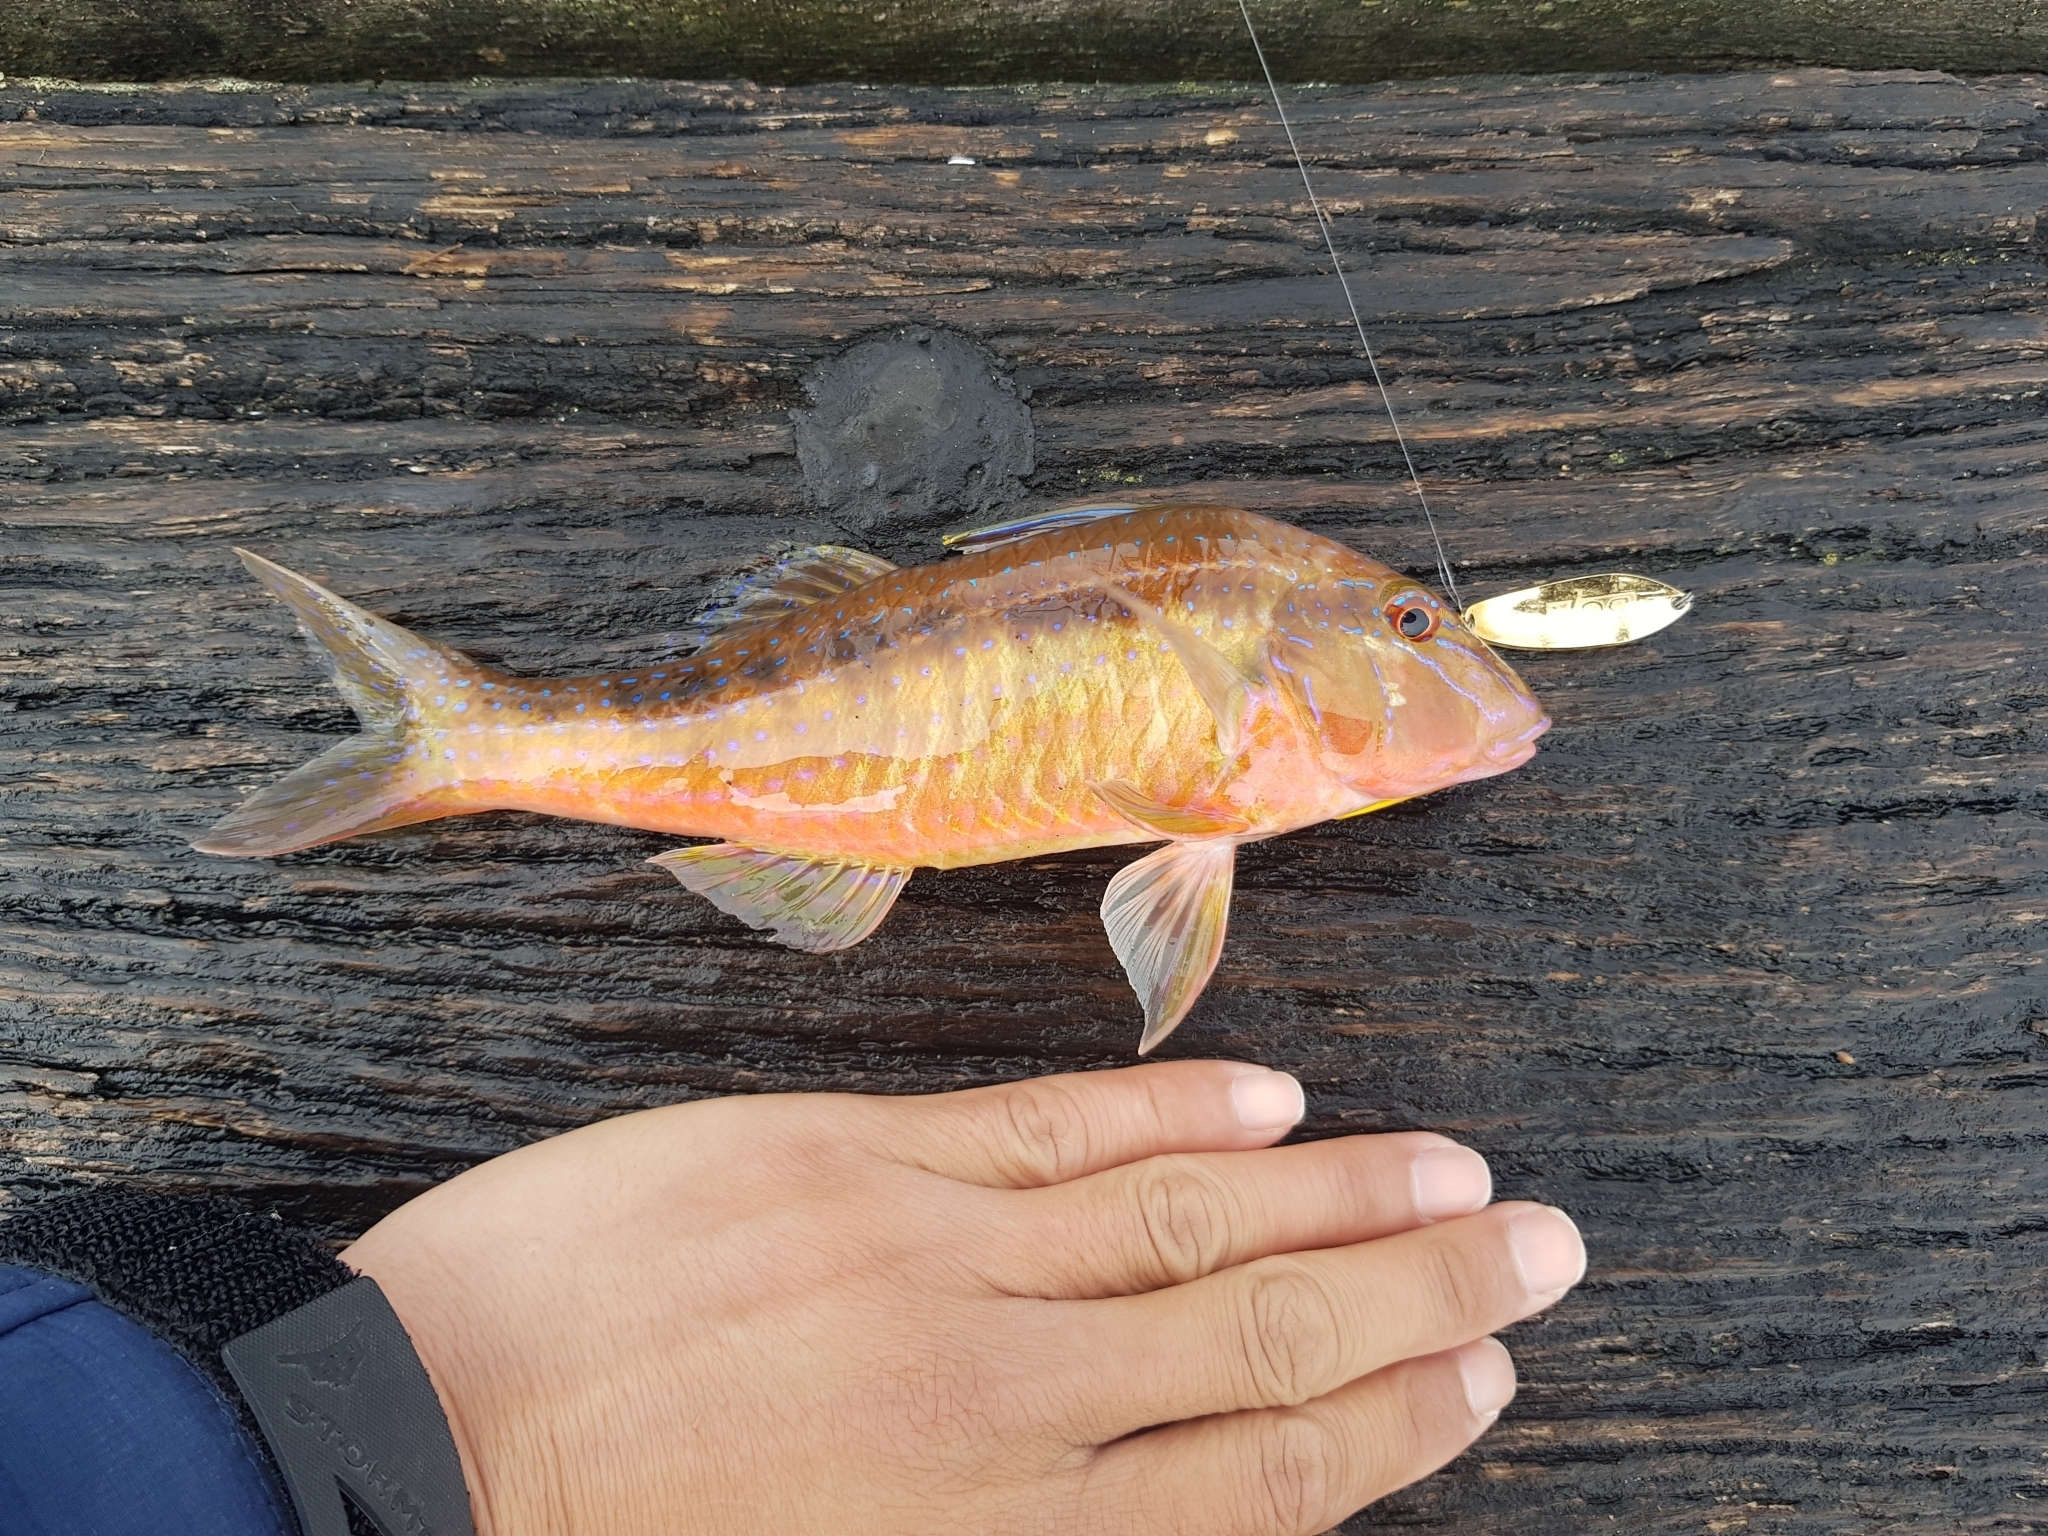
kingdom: Animalia
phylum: Chordata
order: Perciformes
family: Mullidae
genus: Upeneichthys
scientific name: Upeneichthys vlamingii
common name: Red mullet
